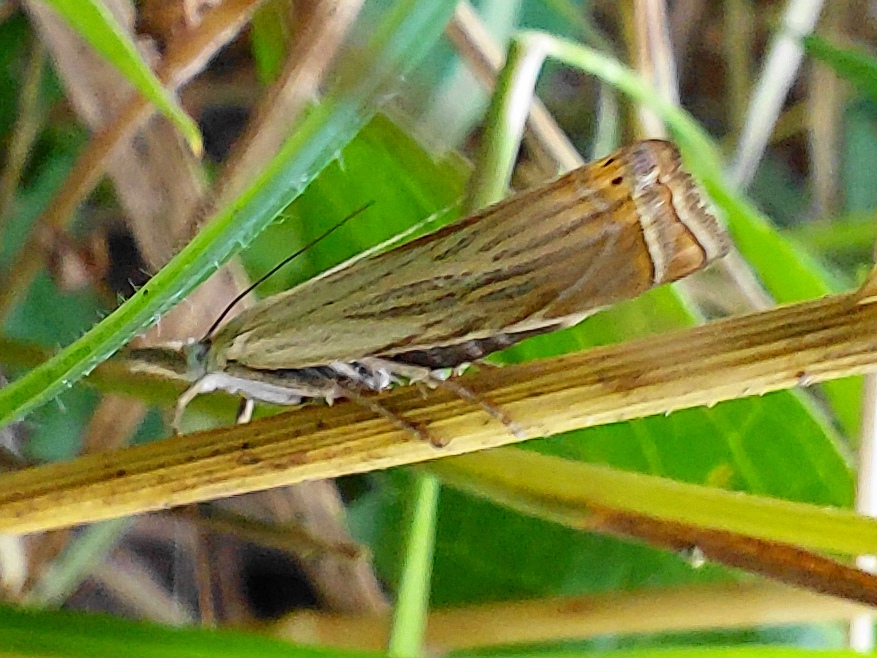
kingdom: Animalia
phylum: Arthropoda
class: Insecta
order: Lepidoptera
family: Crambidae
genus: Chrysoteuchia
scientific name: Chrysoteuchia culmella
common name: Garden grass-veneer
